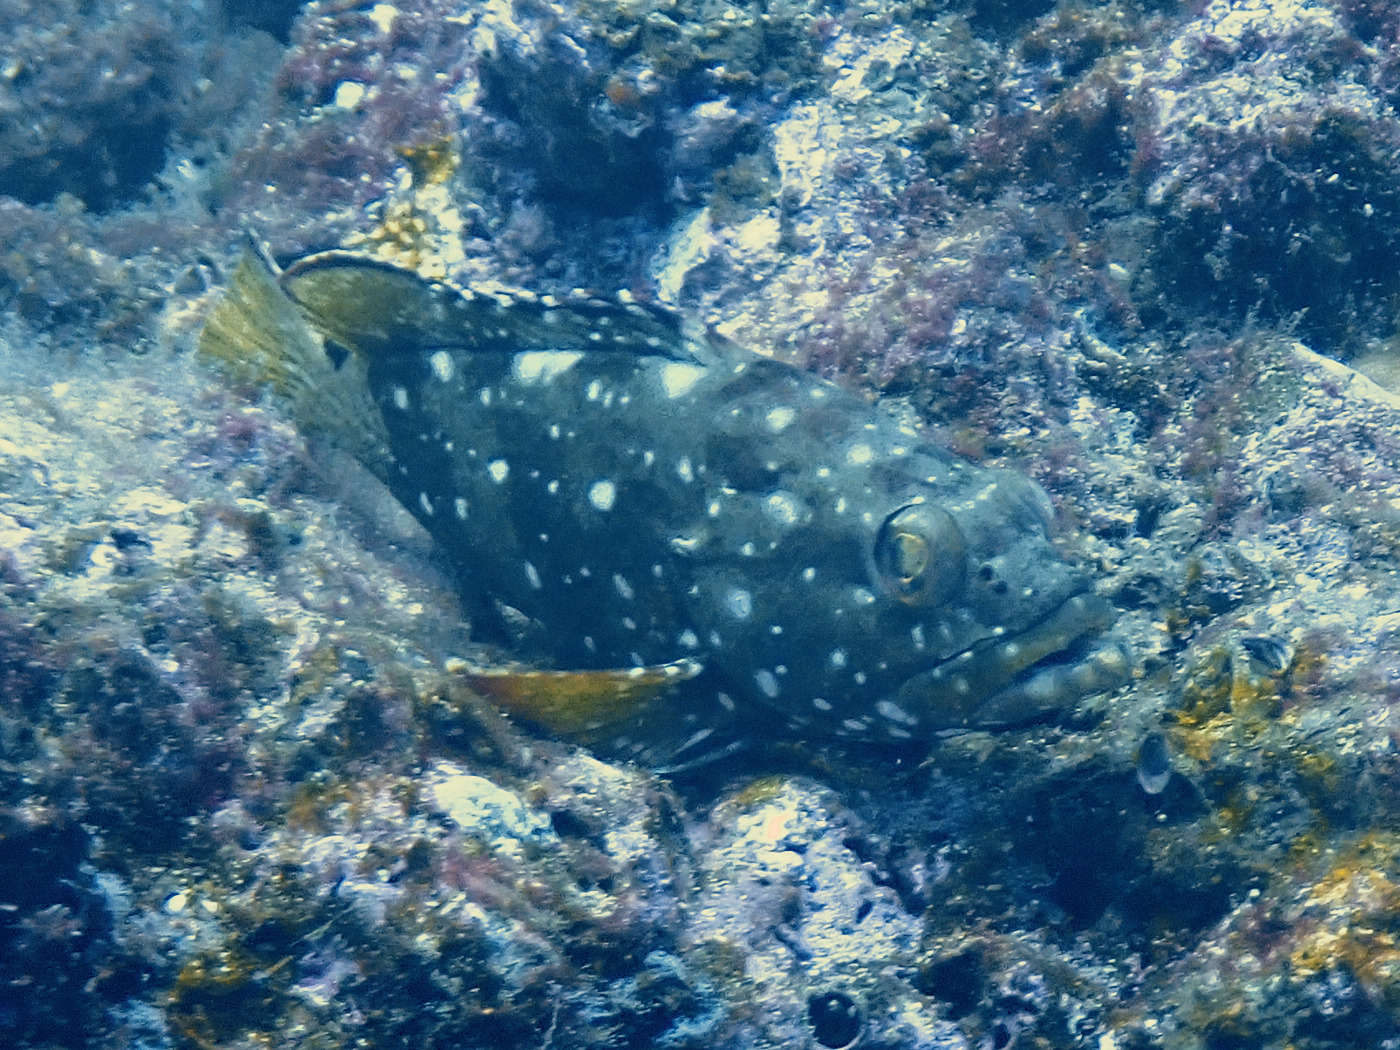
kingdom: Animalia
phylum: Chordata
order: Perciformes
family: Serranidae
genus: Epinephelus
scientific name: Epinephelus labriformis
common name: Flag cabrilla
